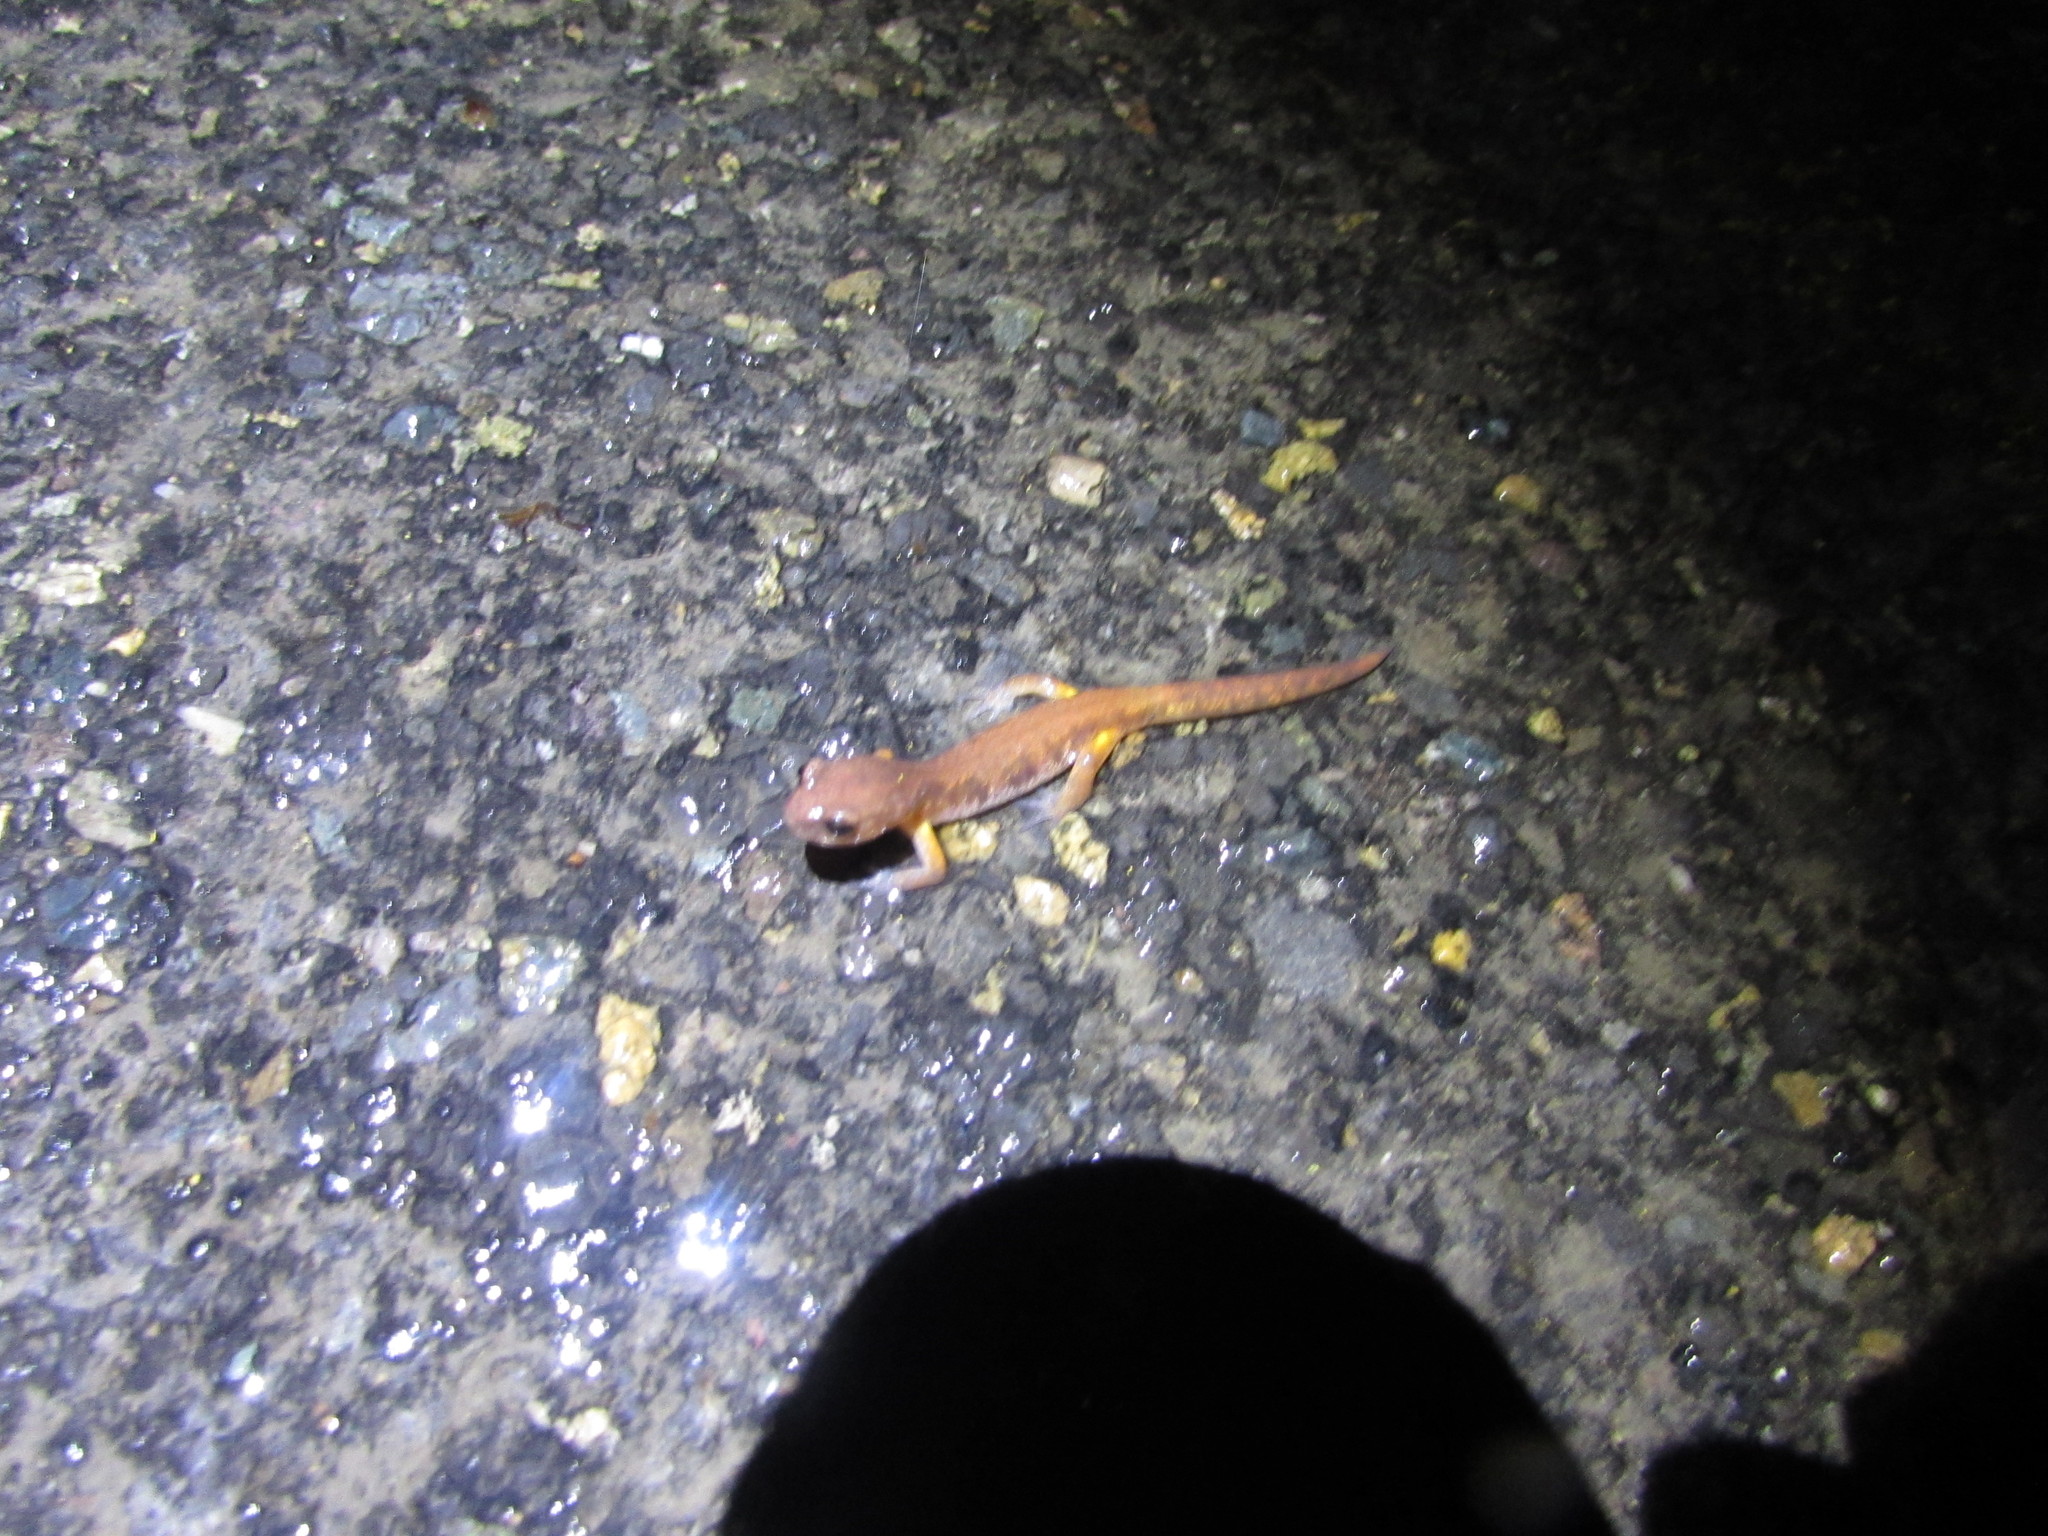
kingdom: Animalia
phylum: Chordata
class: Amphibia
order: Caudata
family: Plethodontidae
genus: Ensatina
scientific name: Ensatina eschscholtzii
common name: Ensatina
